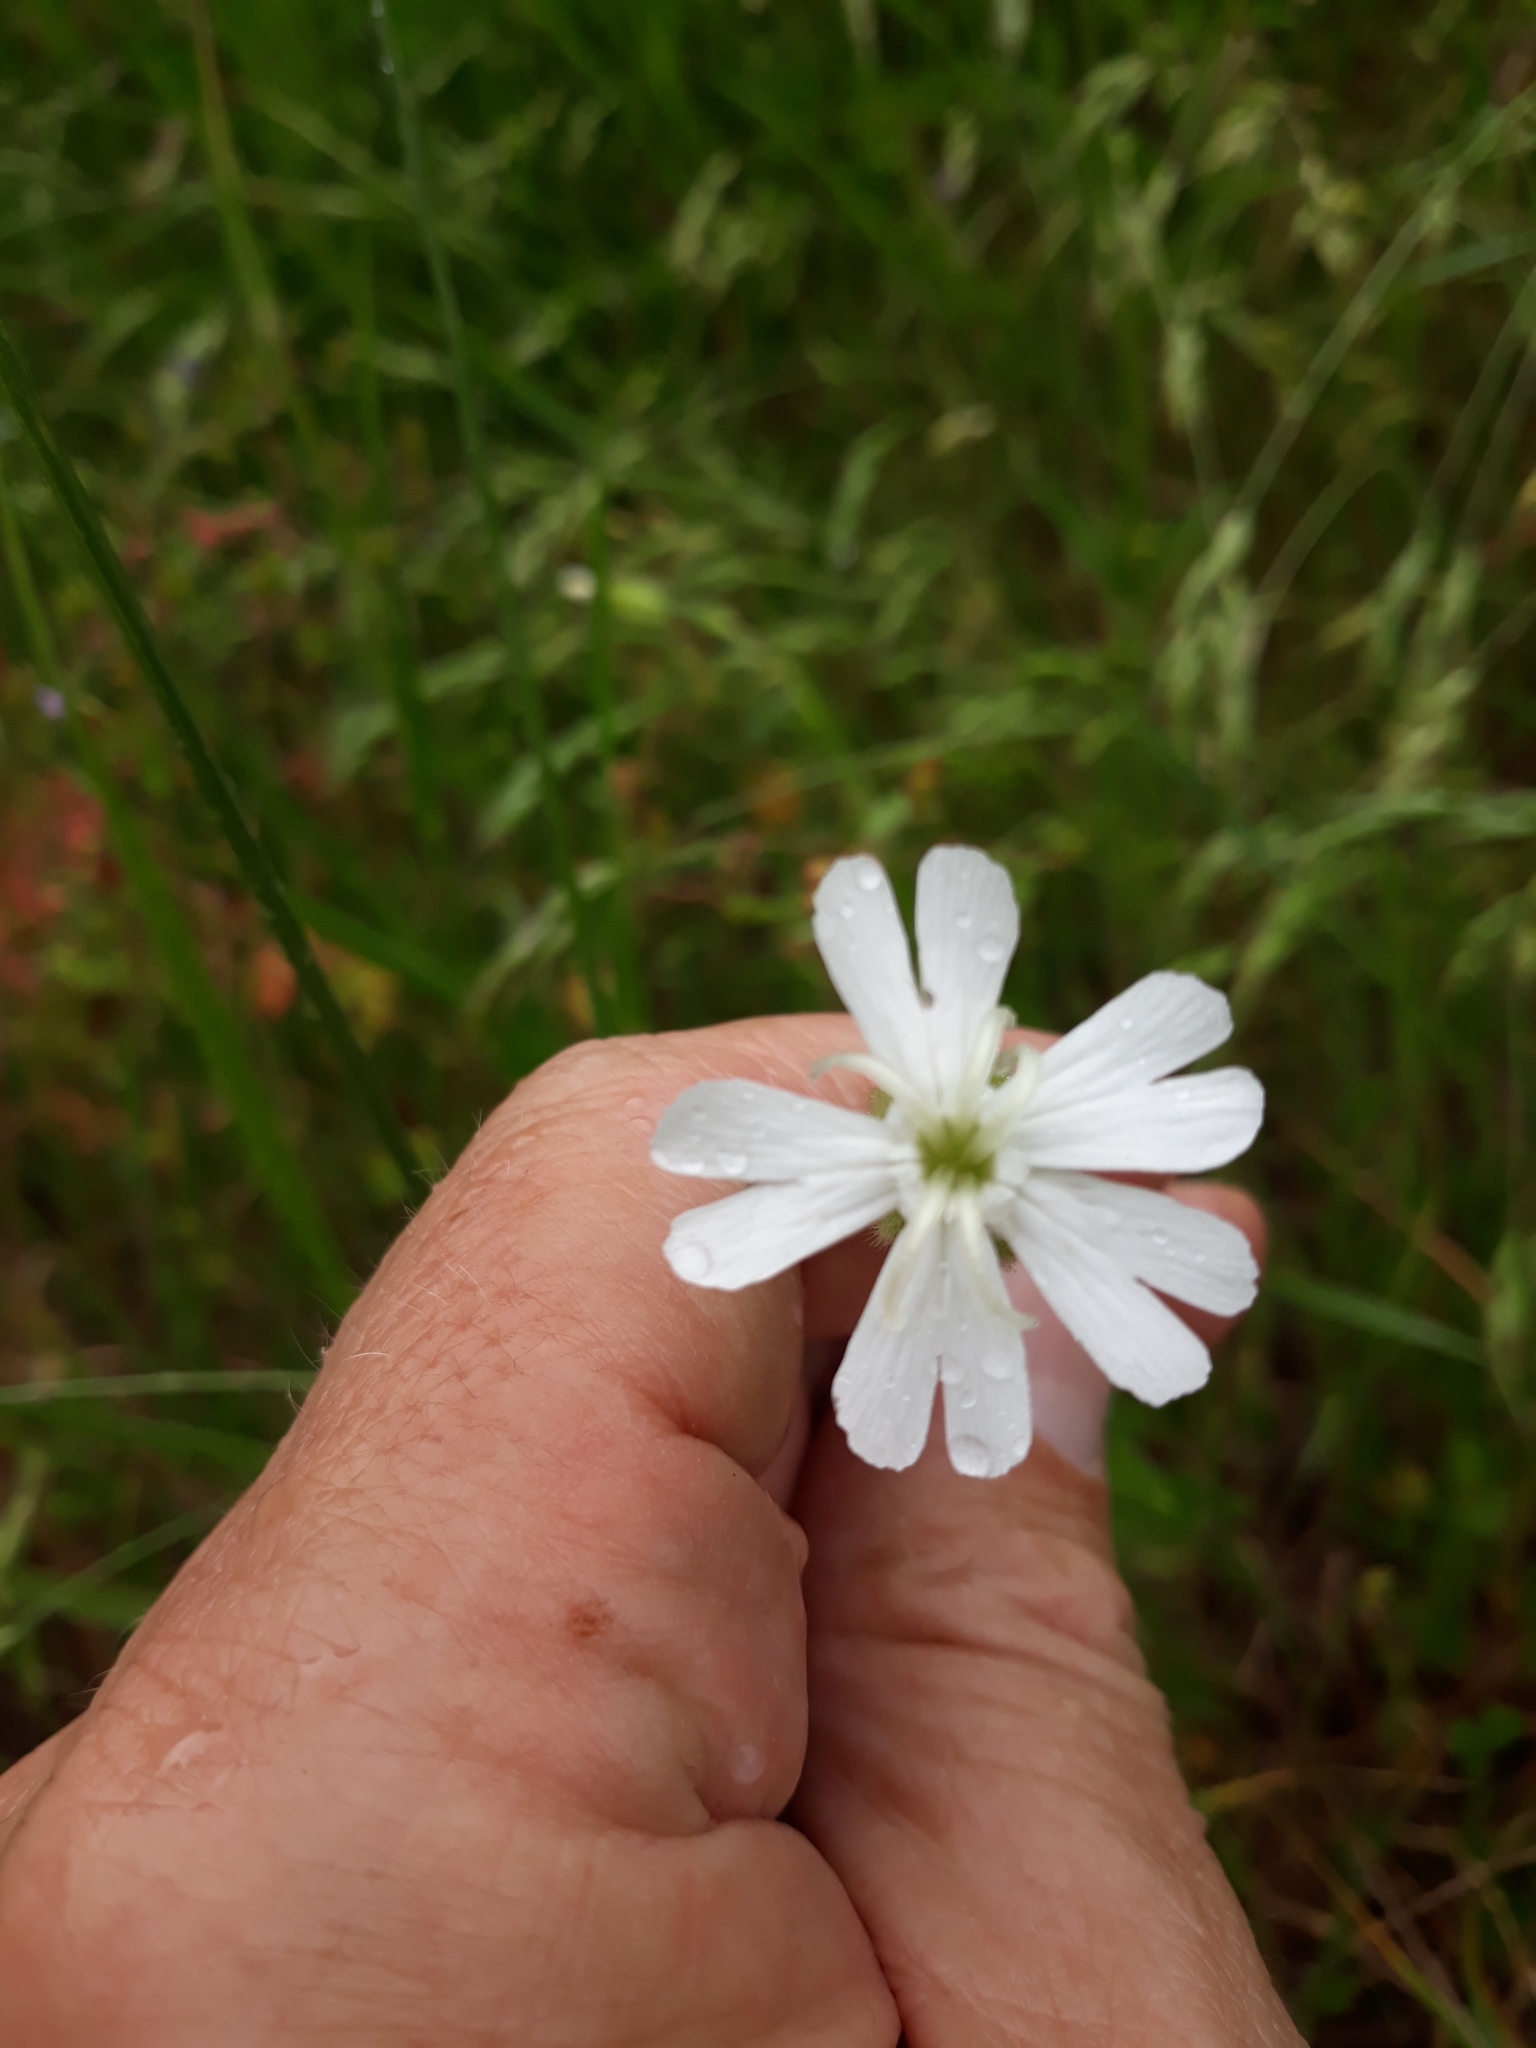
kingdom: Plantae
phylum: Tracheophyta
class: Magnoliopsida
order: Caryophyllales
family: Caryophyllaceae
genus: Silene
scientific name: Silene latifolia
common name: White campion
